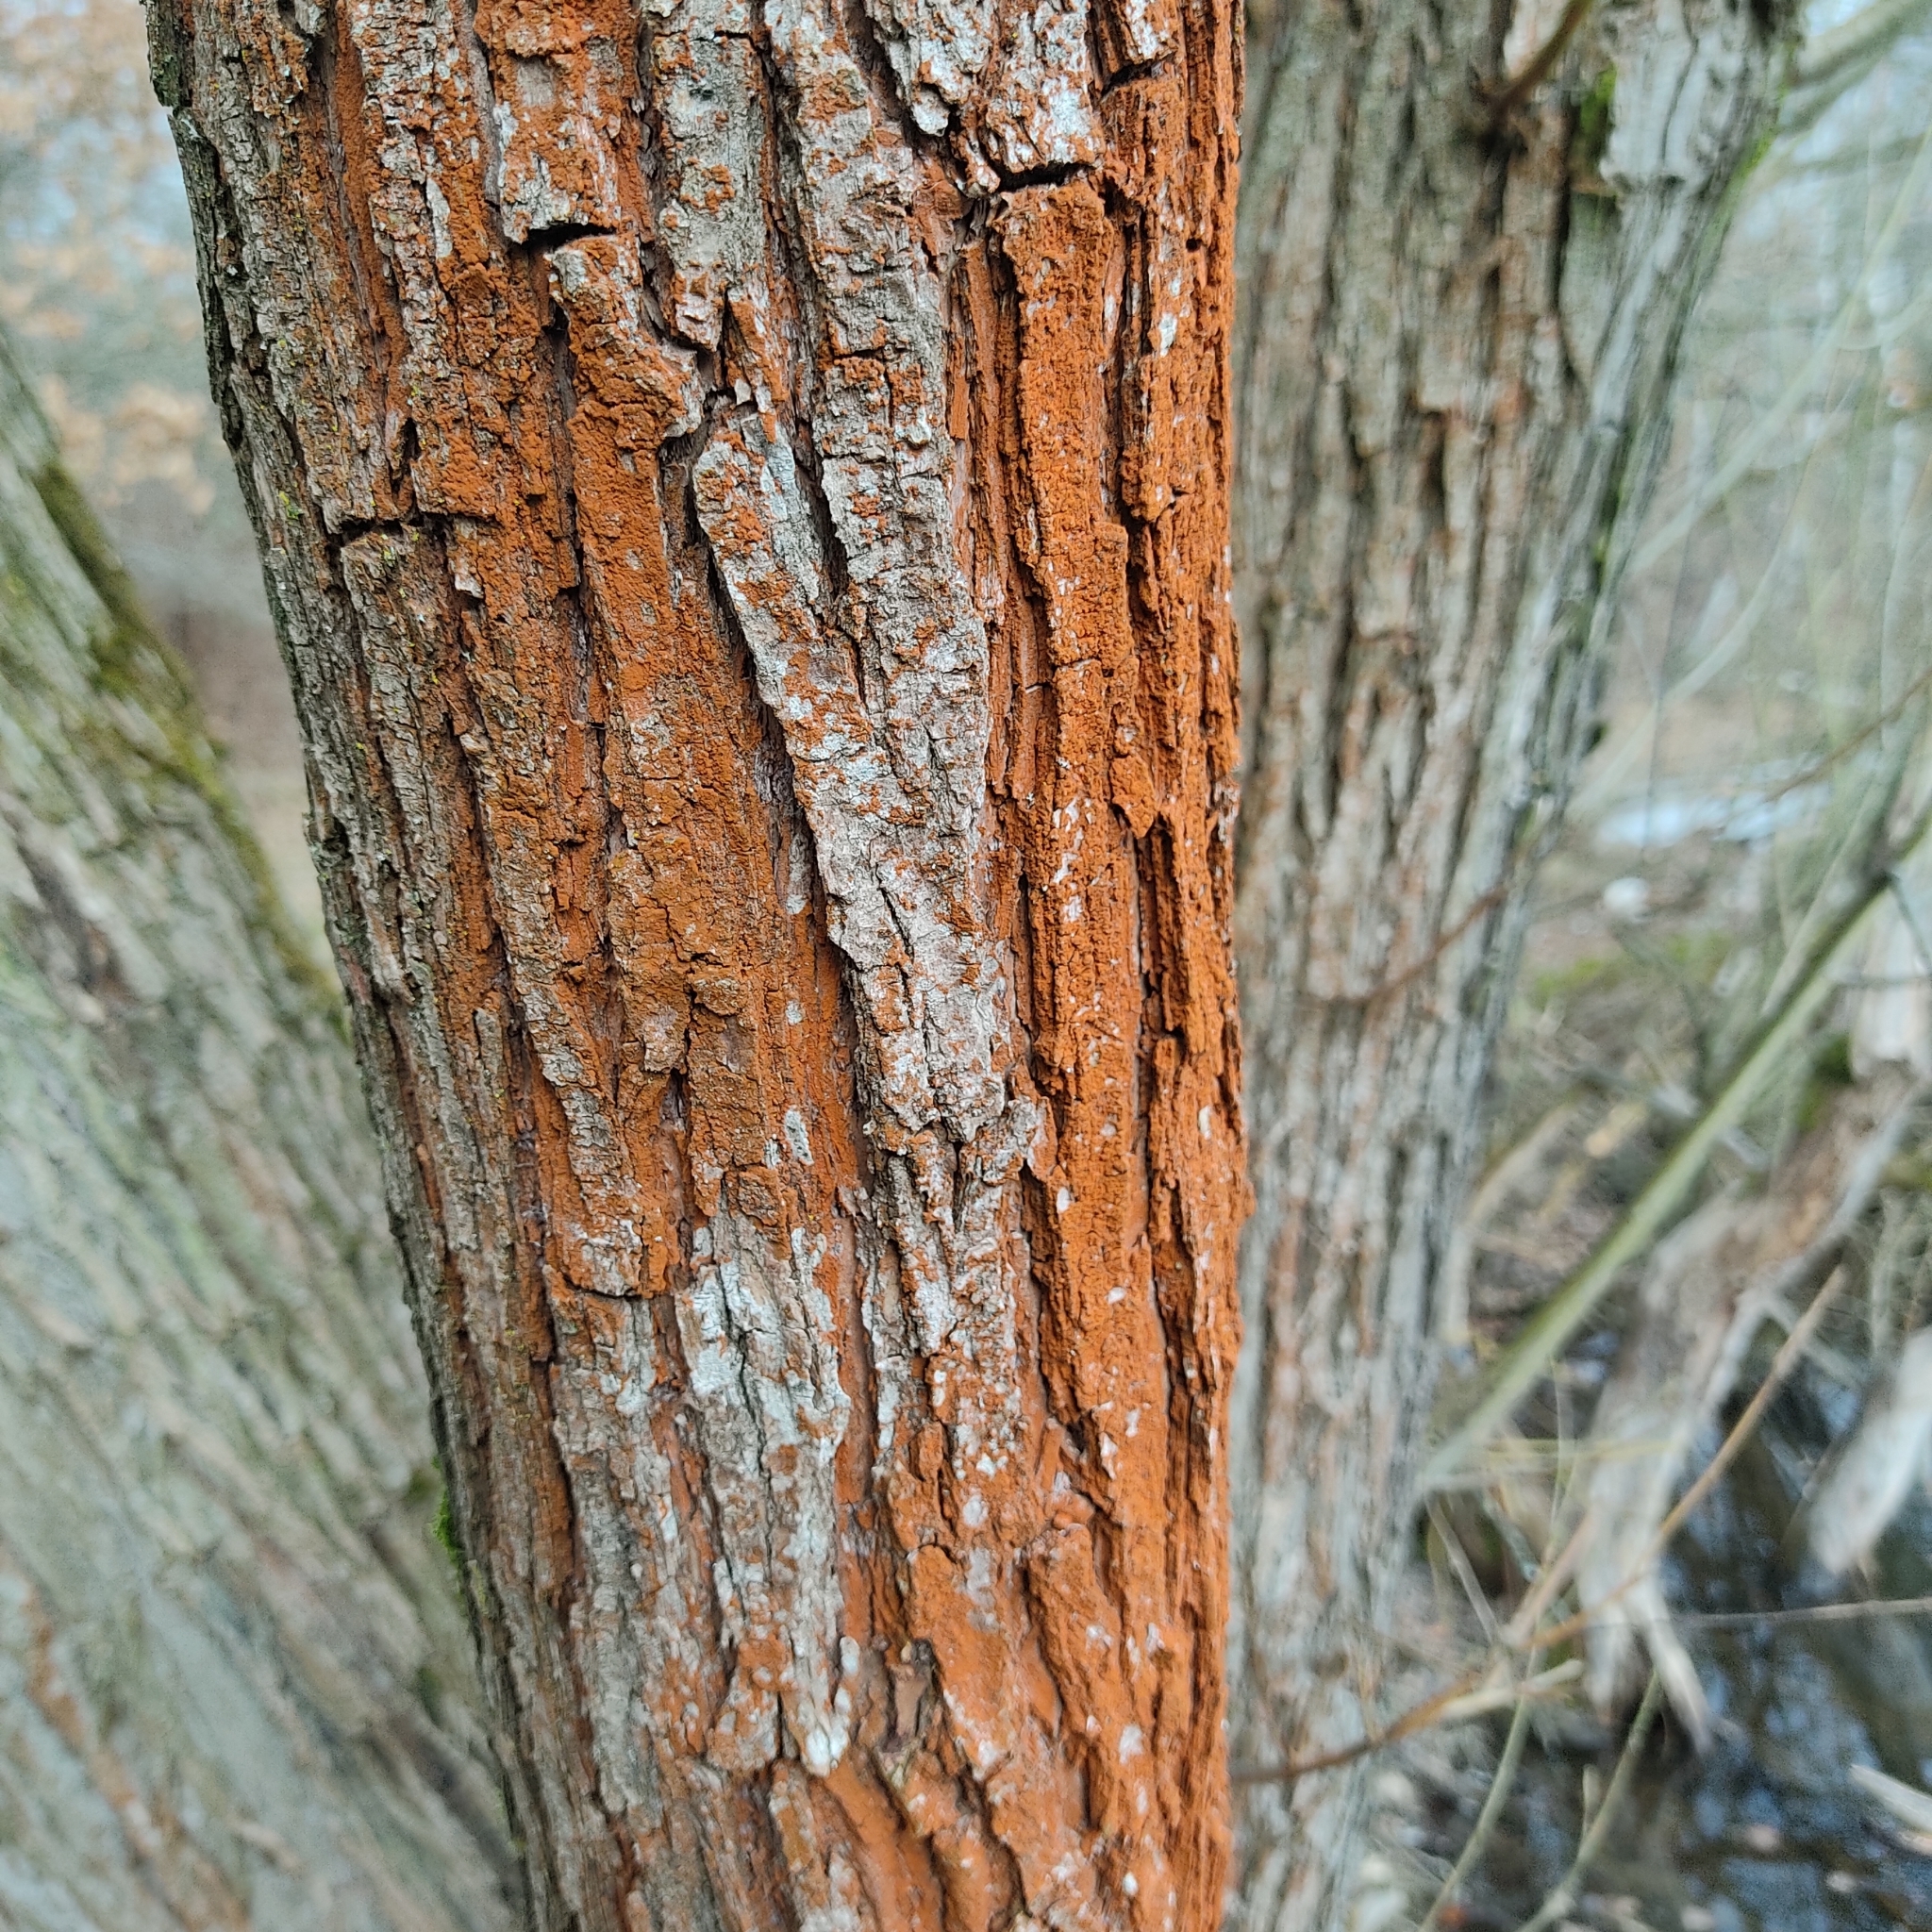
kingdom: Plantae
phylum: Chlorophyta
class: Ulvophyceae
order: Trentepohliales
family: Trentepohliaceae
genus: Trentepohlia
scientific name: Trentepohlia umbrina
